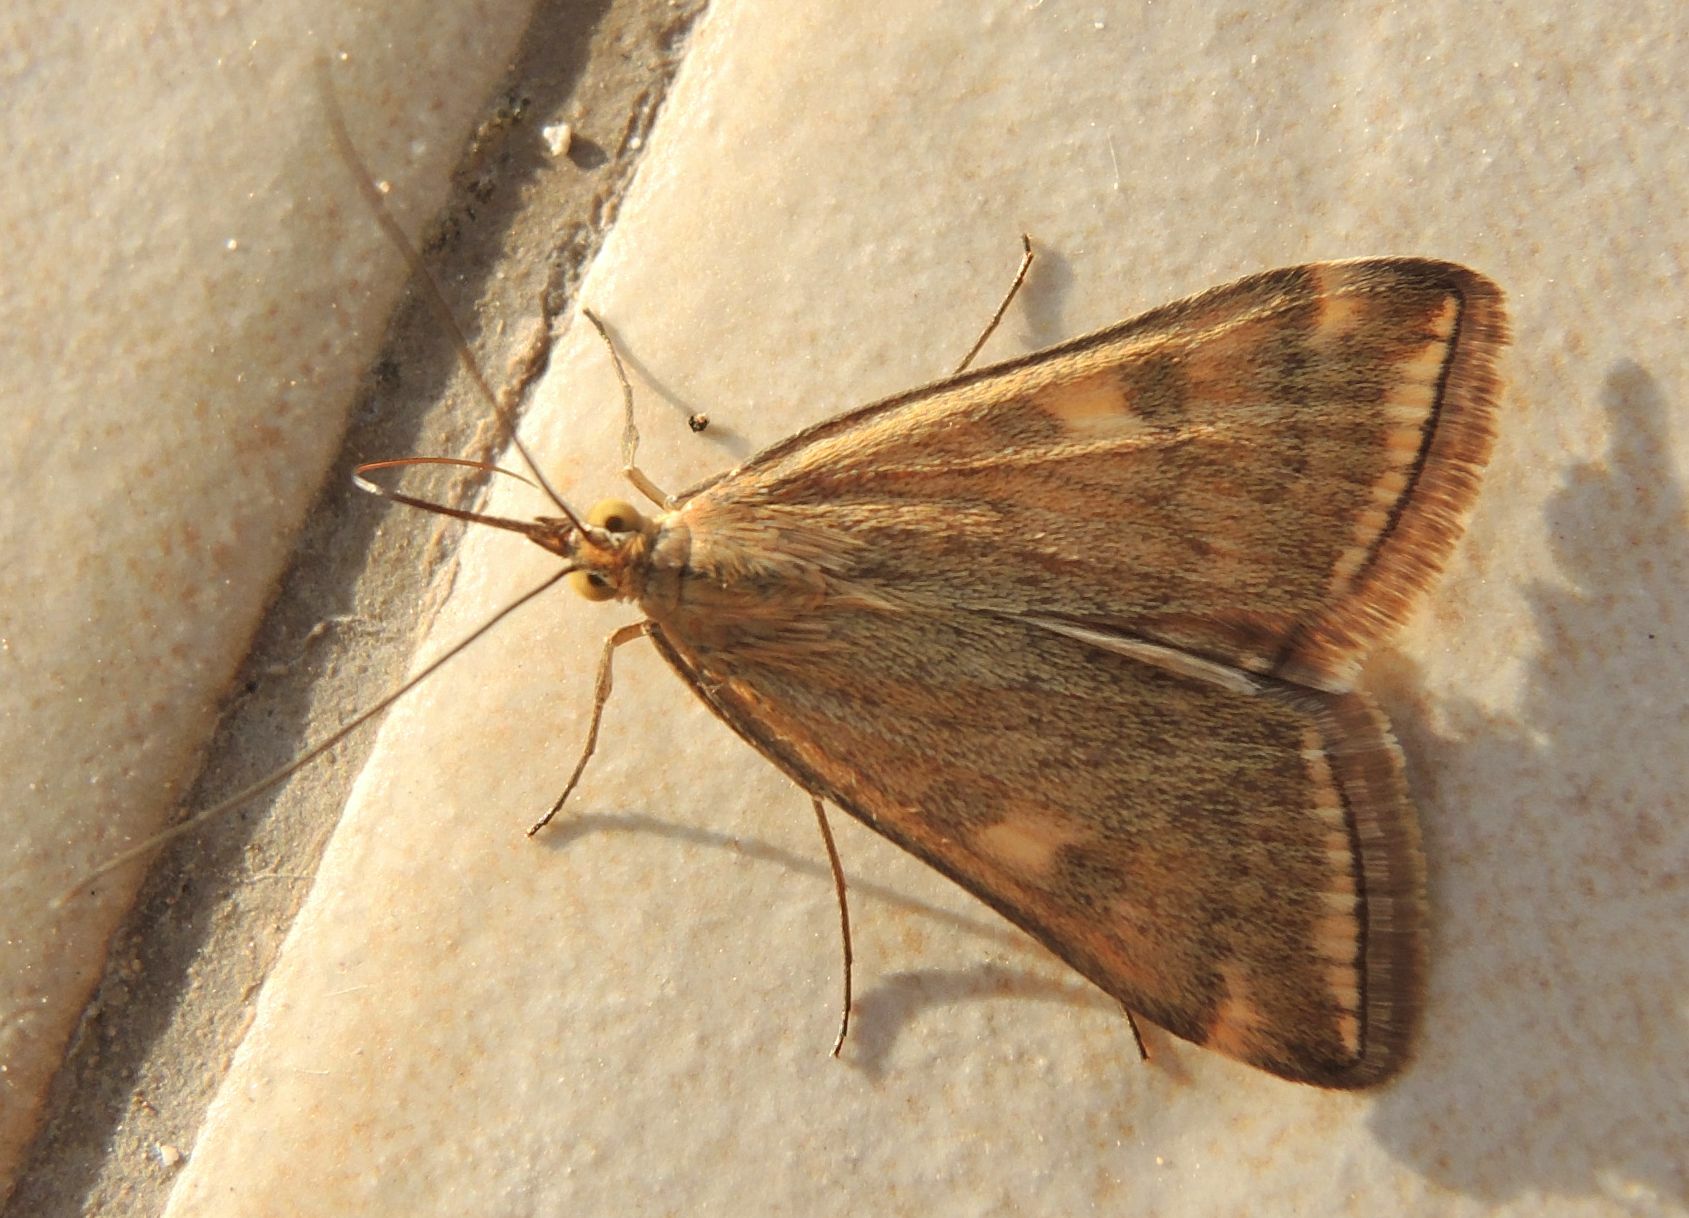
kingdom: Animalia
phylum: Arthropoda
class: Insecta
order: Lepidoptera
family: Crambidae
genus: Loxostege
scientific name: Loxostege sticticalis
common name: Crambid moth
